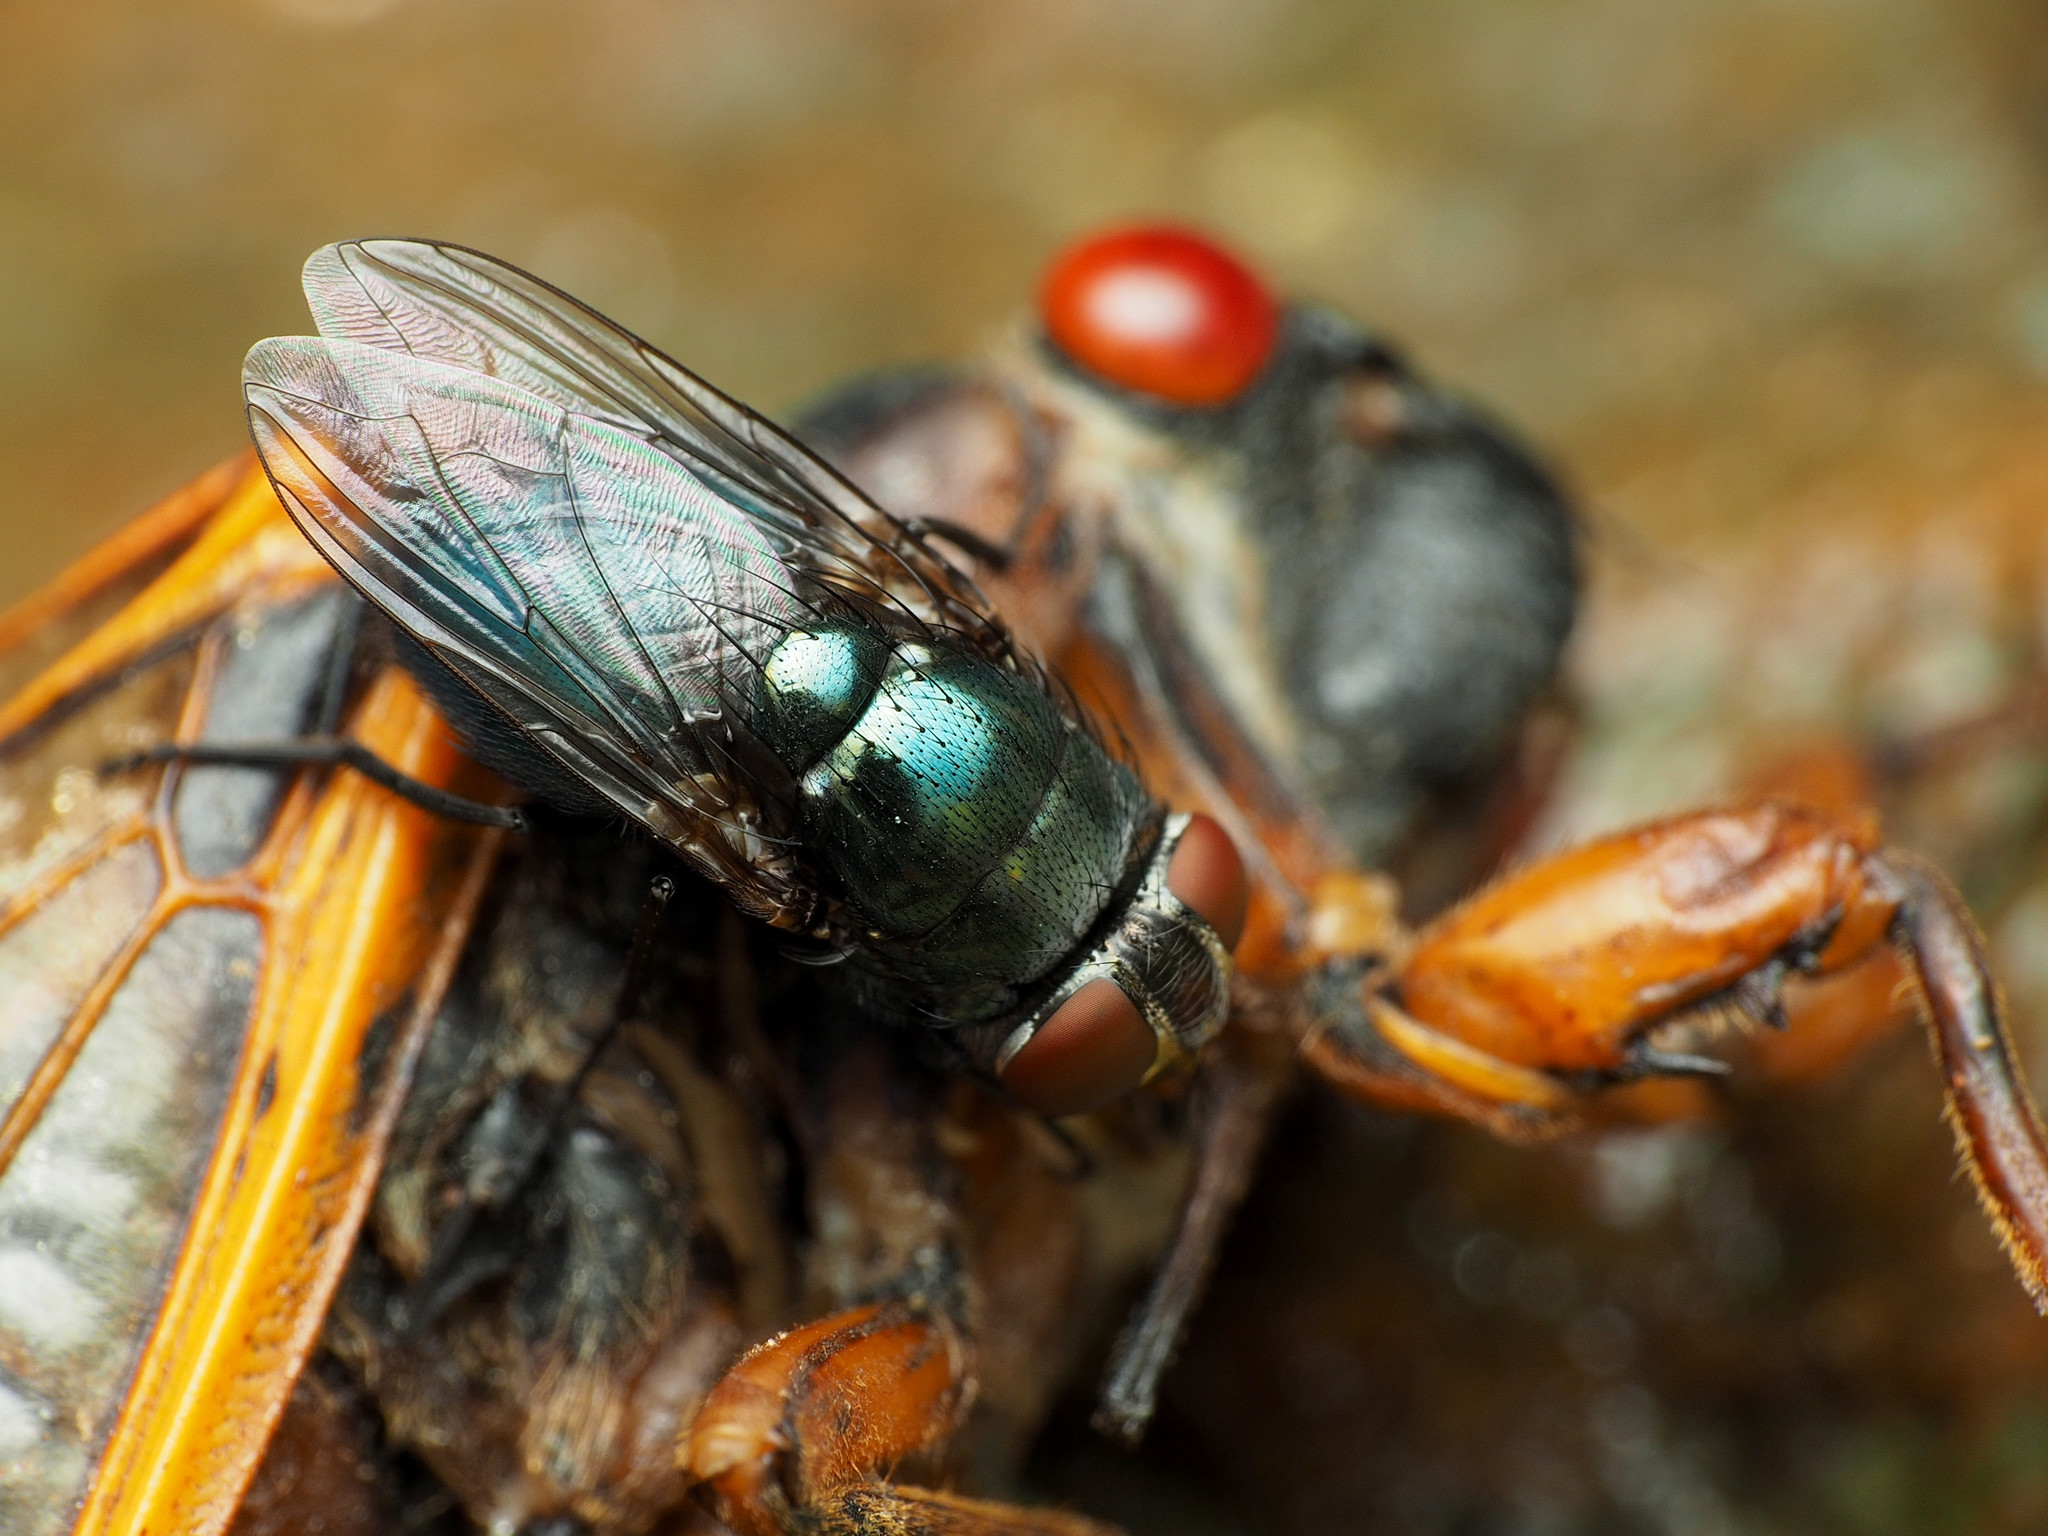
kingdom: Animalia
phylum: Arthropoda
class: Insecta
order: Diptera
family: Calliphoridae
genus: Phormia
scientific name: Phormia regina
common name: Black blow fly
